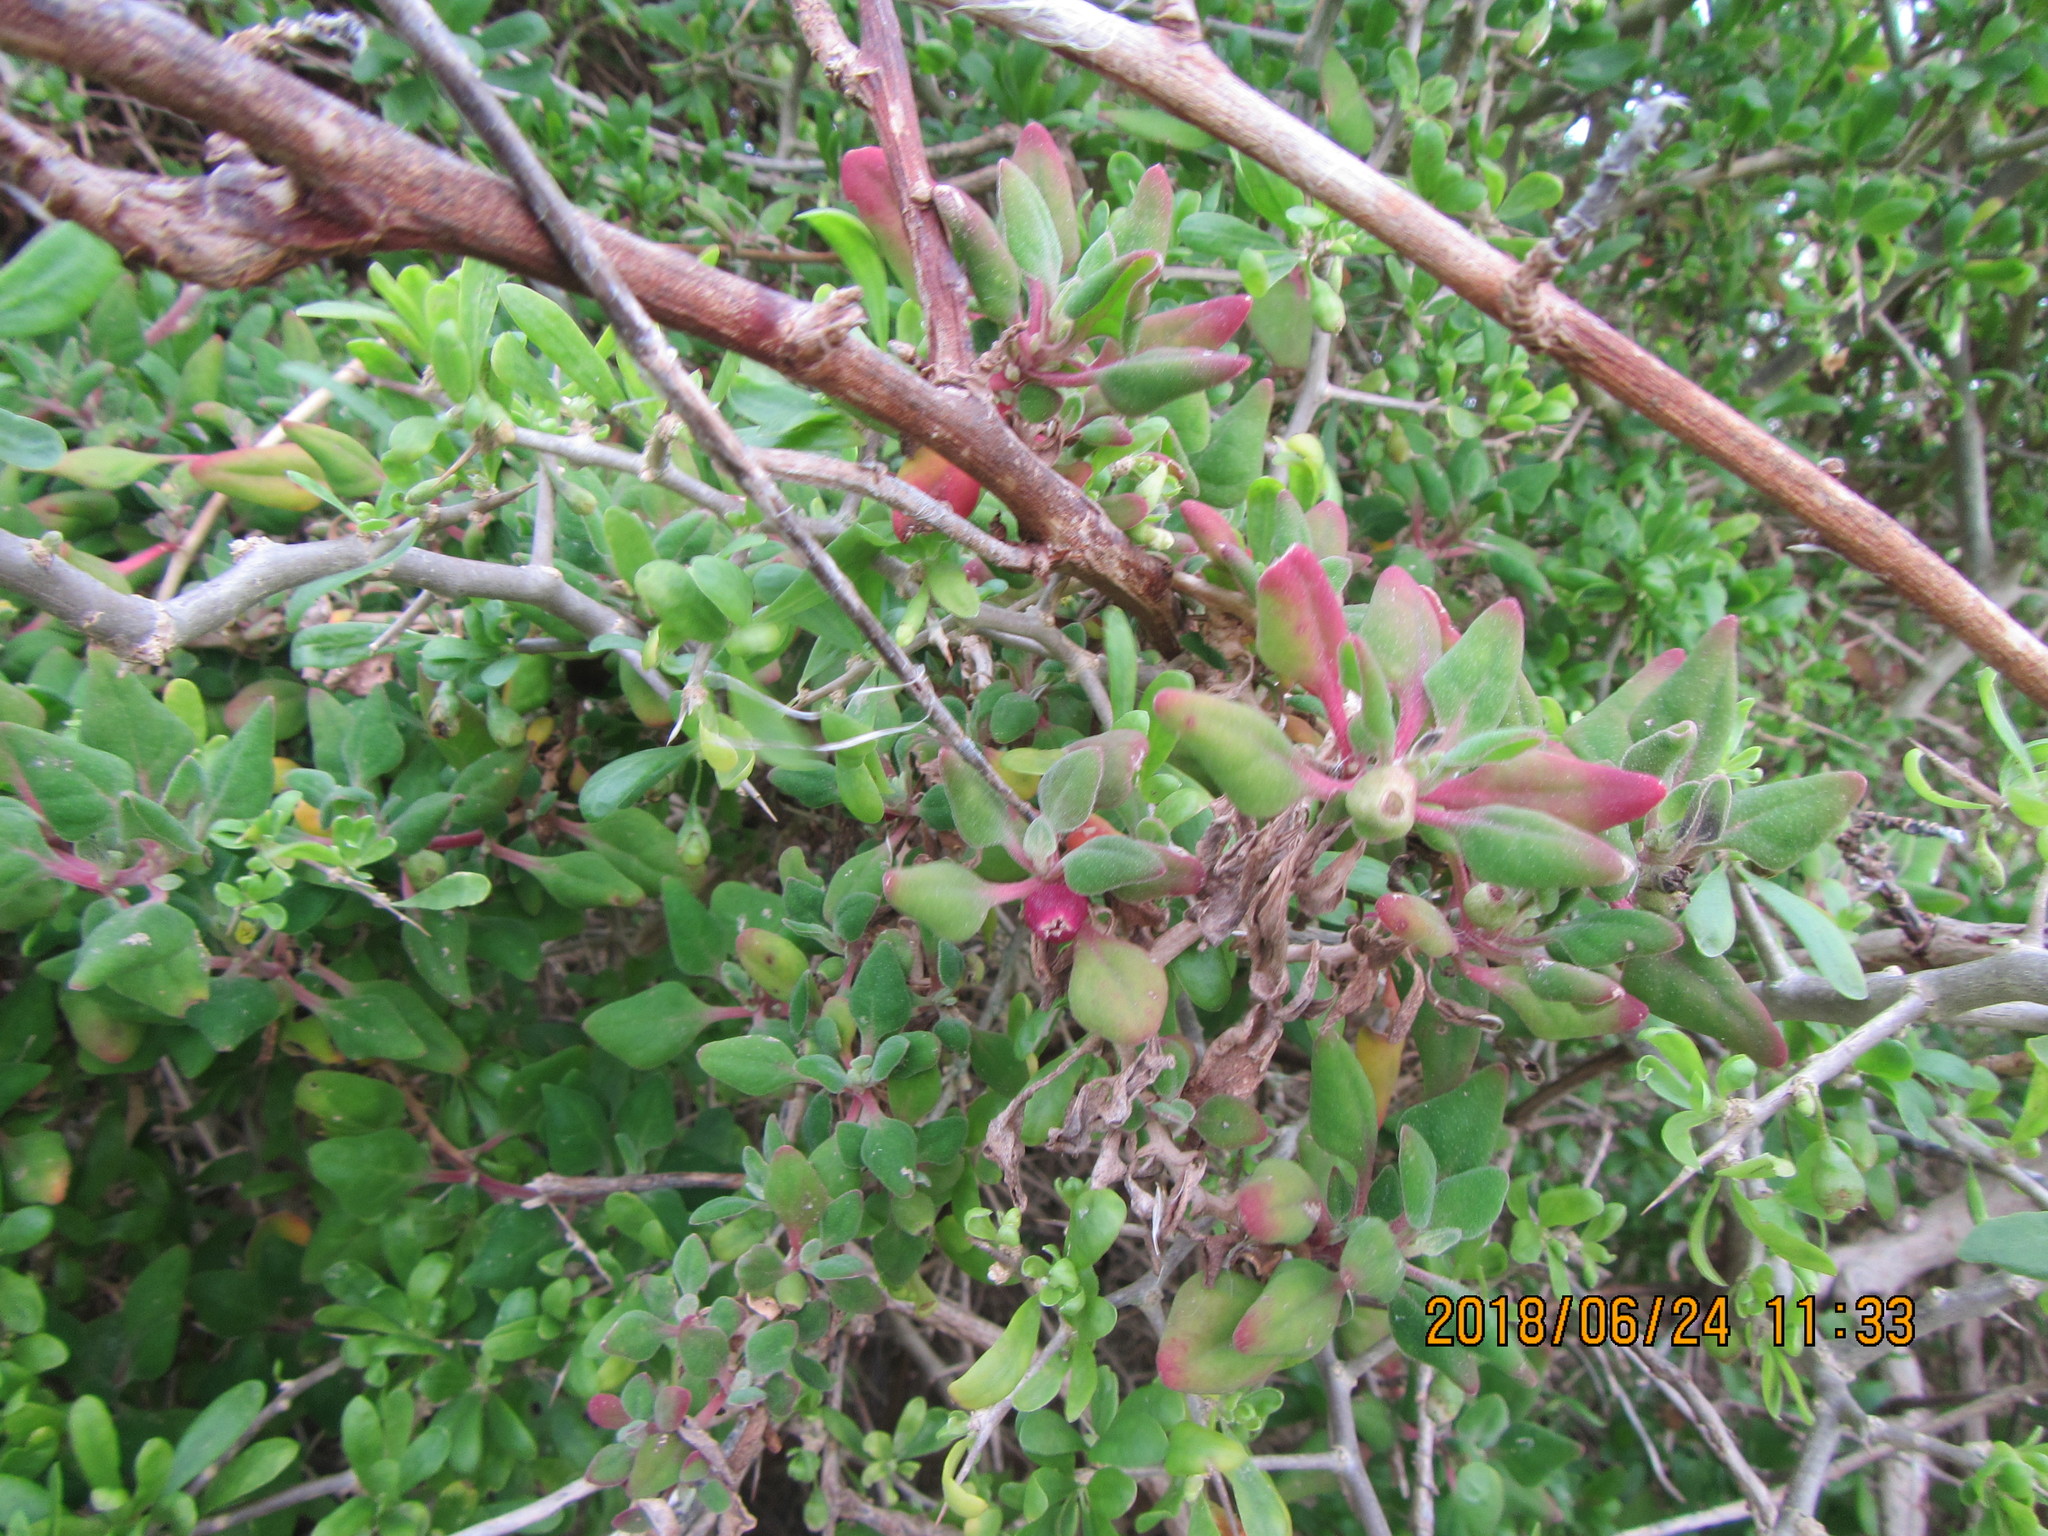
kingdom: Plantae
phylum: Tracheophyta
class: Magnoliopsida
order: Caryophyllales
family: Aizoaceae
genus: Tetragonia
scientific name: Tetragonia implexicoma
